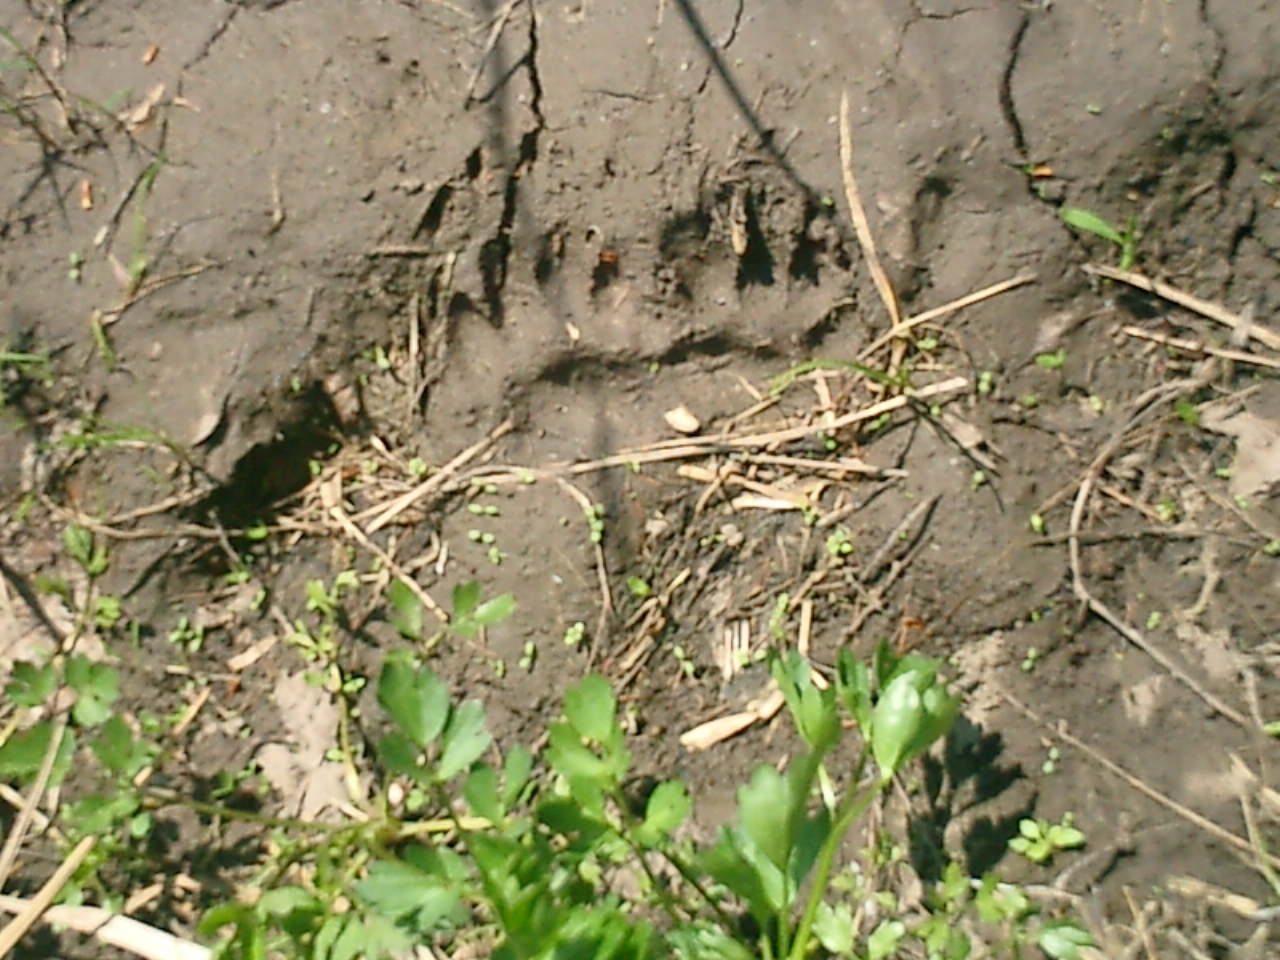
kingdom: Animalia
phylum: Chordata
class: Mammalia
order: Carnivora
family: Mustelidae
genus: Meles
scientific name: Meles meles
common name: Eurasian badger
